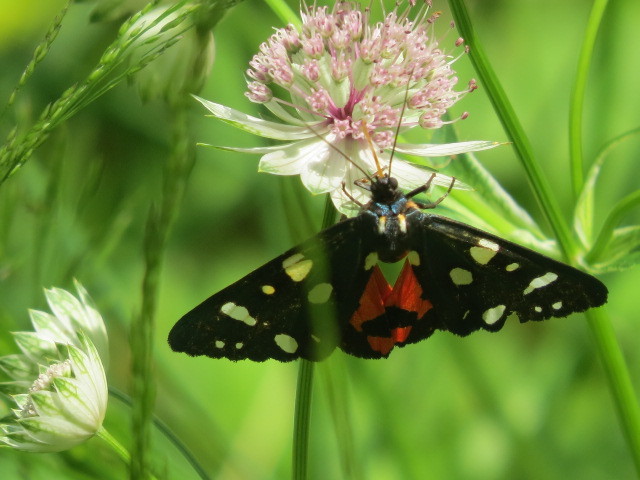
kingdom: Animalia
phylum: Arthropoda
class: Insecta
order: Lepidoptera
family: Erebidae
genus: Callimorpha
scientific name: Callimorpha dominula
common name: Scarlet tiger
